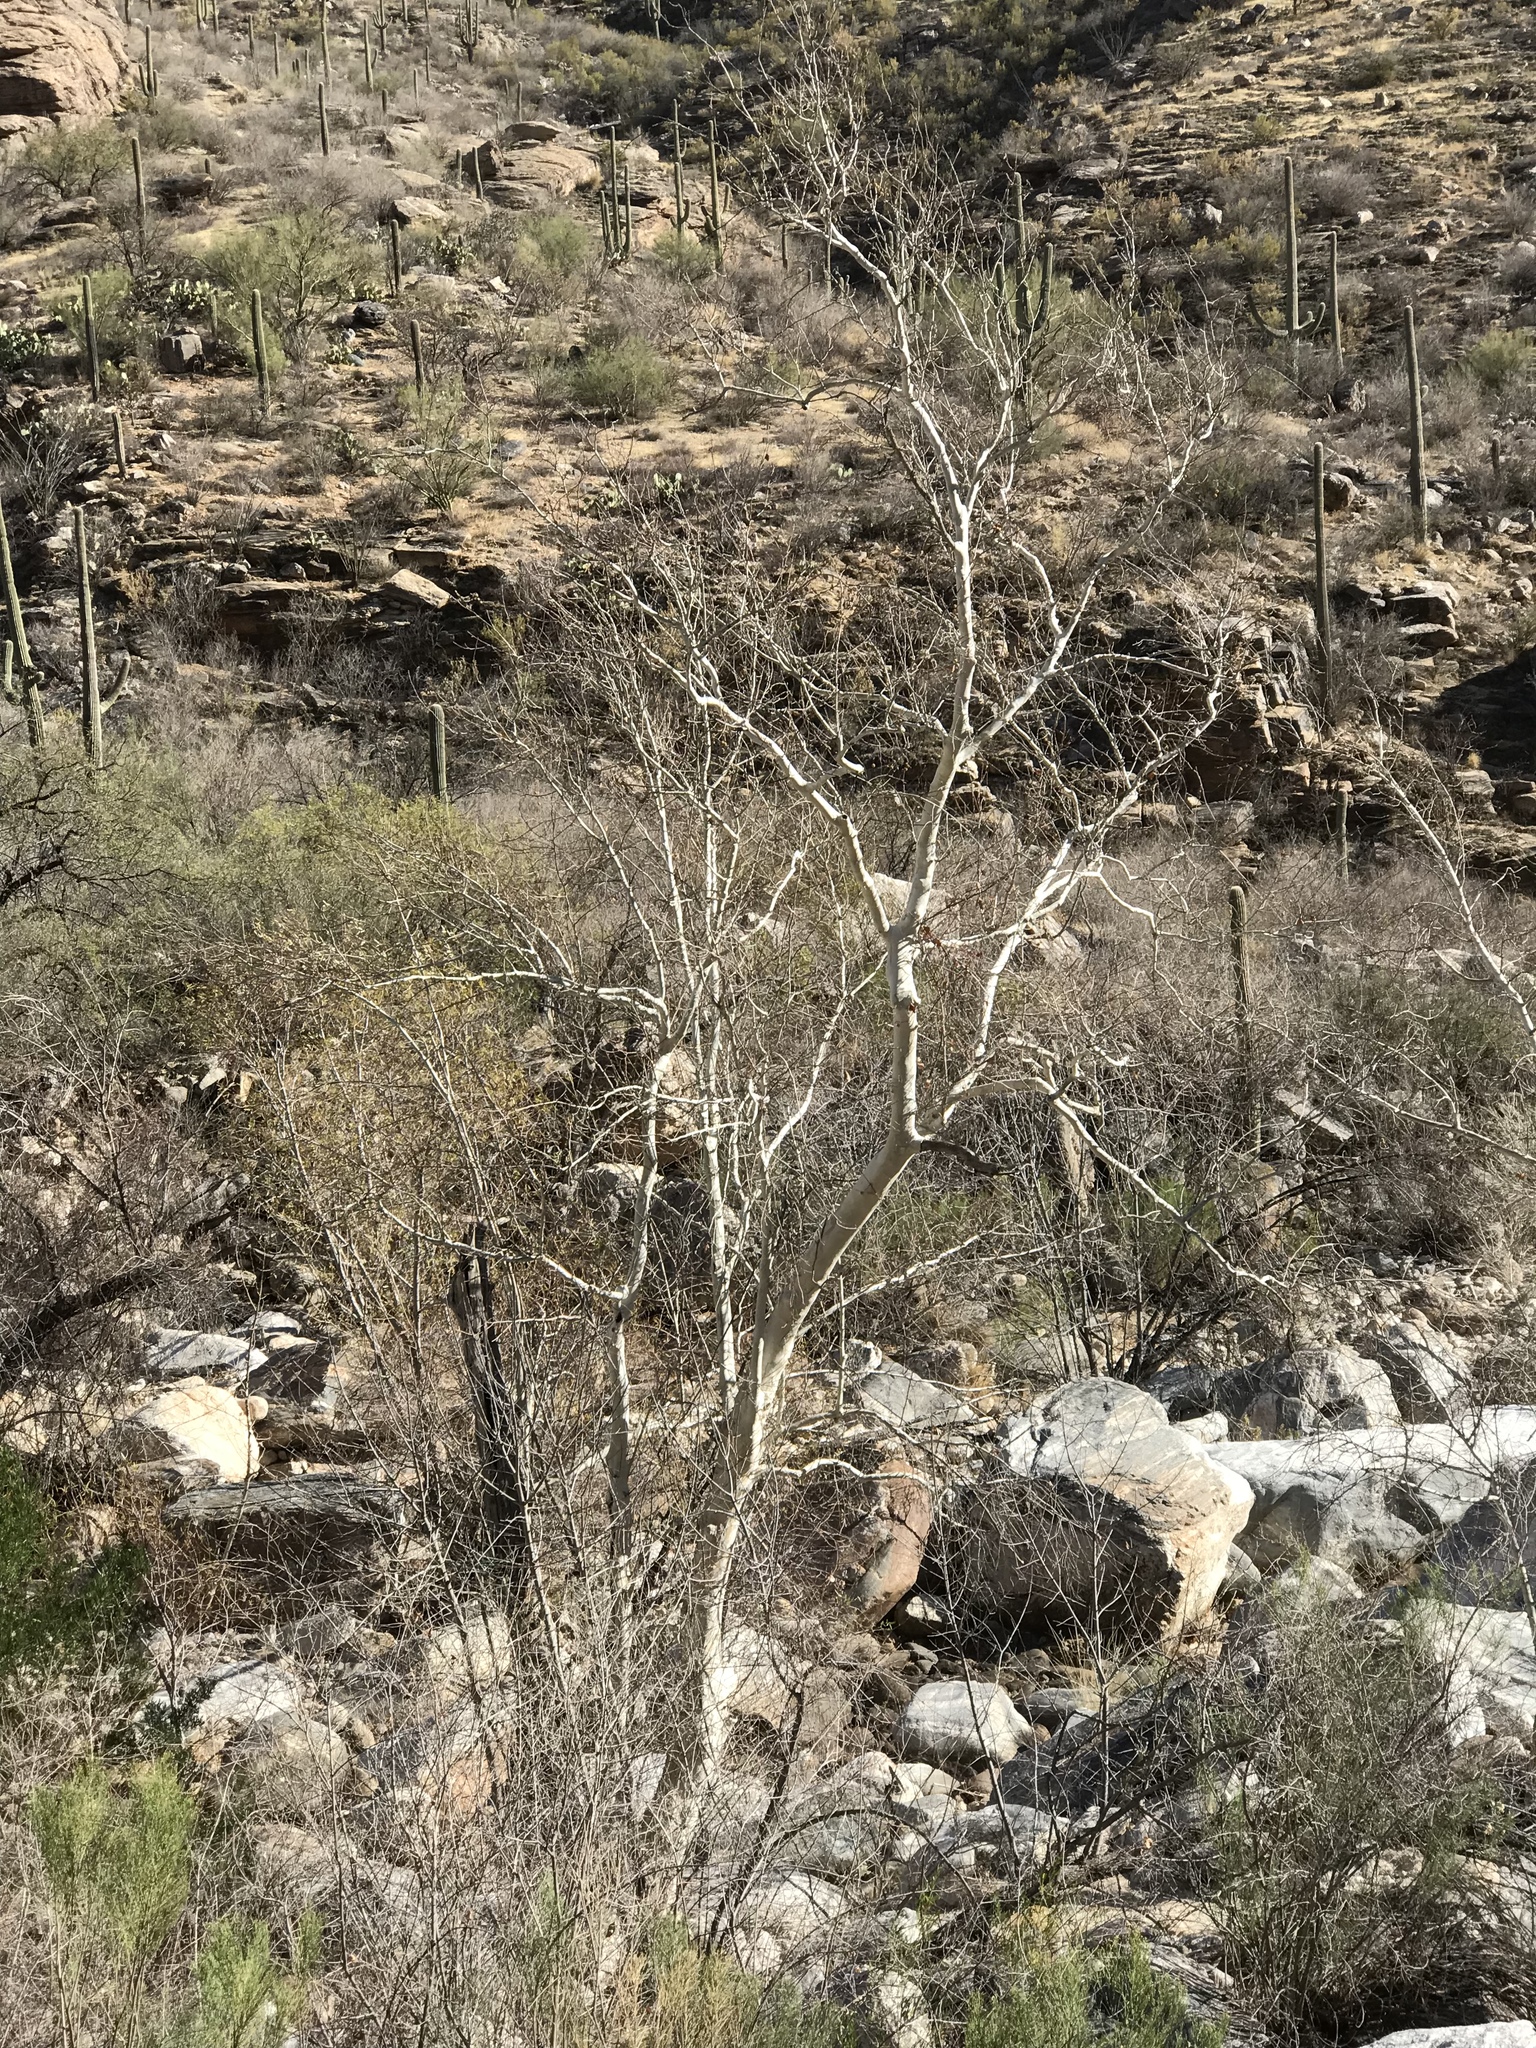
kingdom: Plantae
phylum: Tracheophyta
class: Magnoliopsida
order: Proteales
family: Platanaceae
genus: Platanus
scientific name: Platanus wrightii
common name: Arizona sycamore
